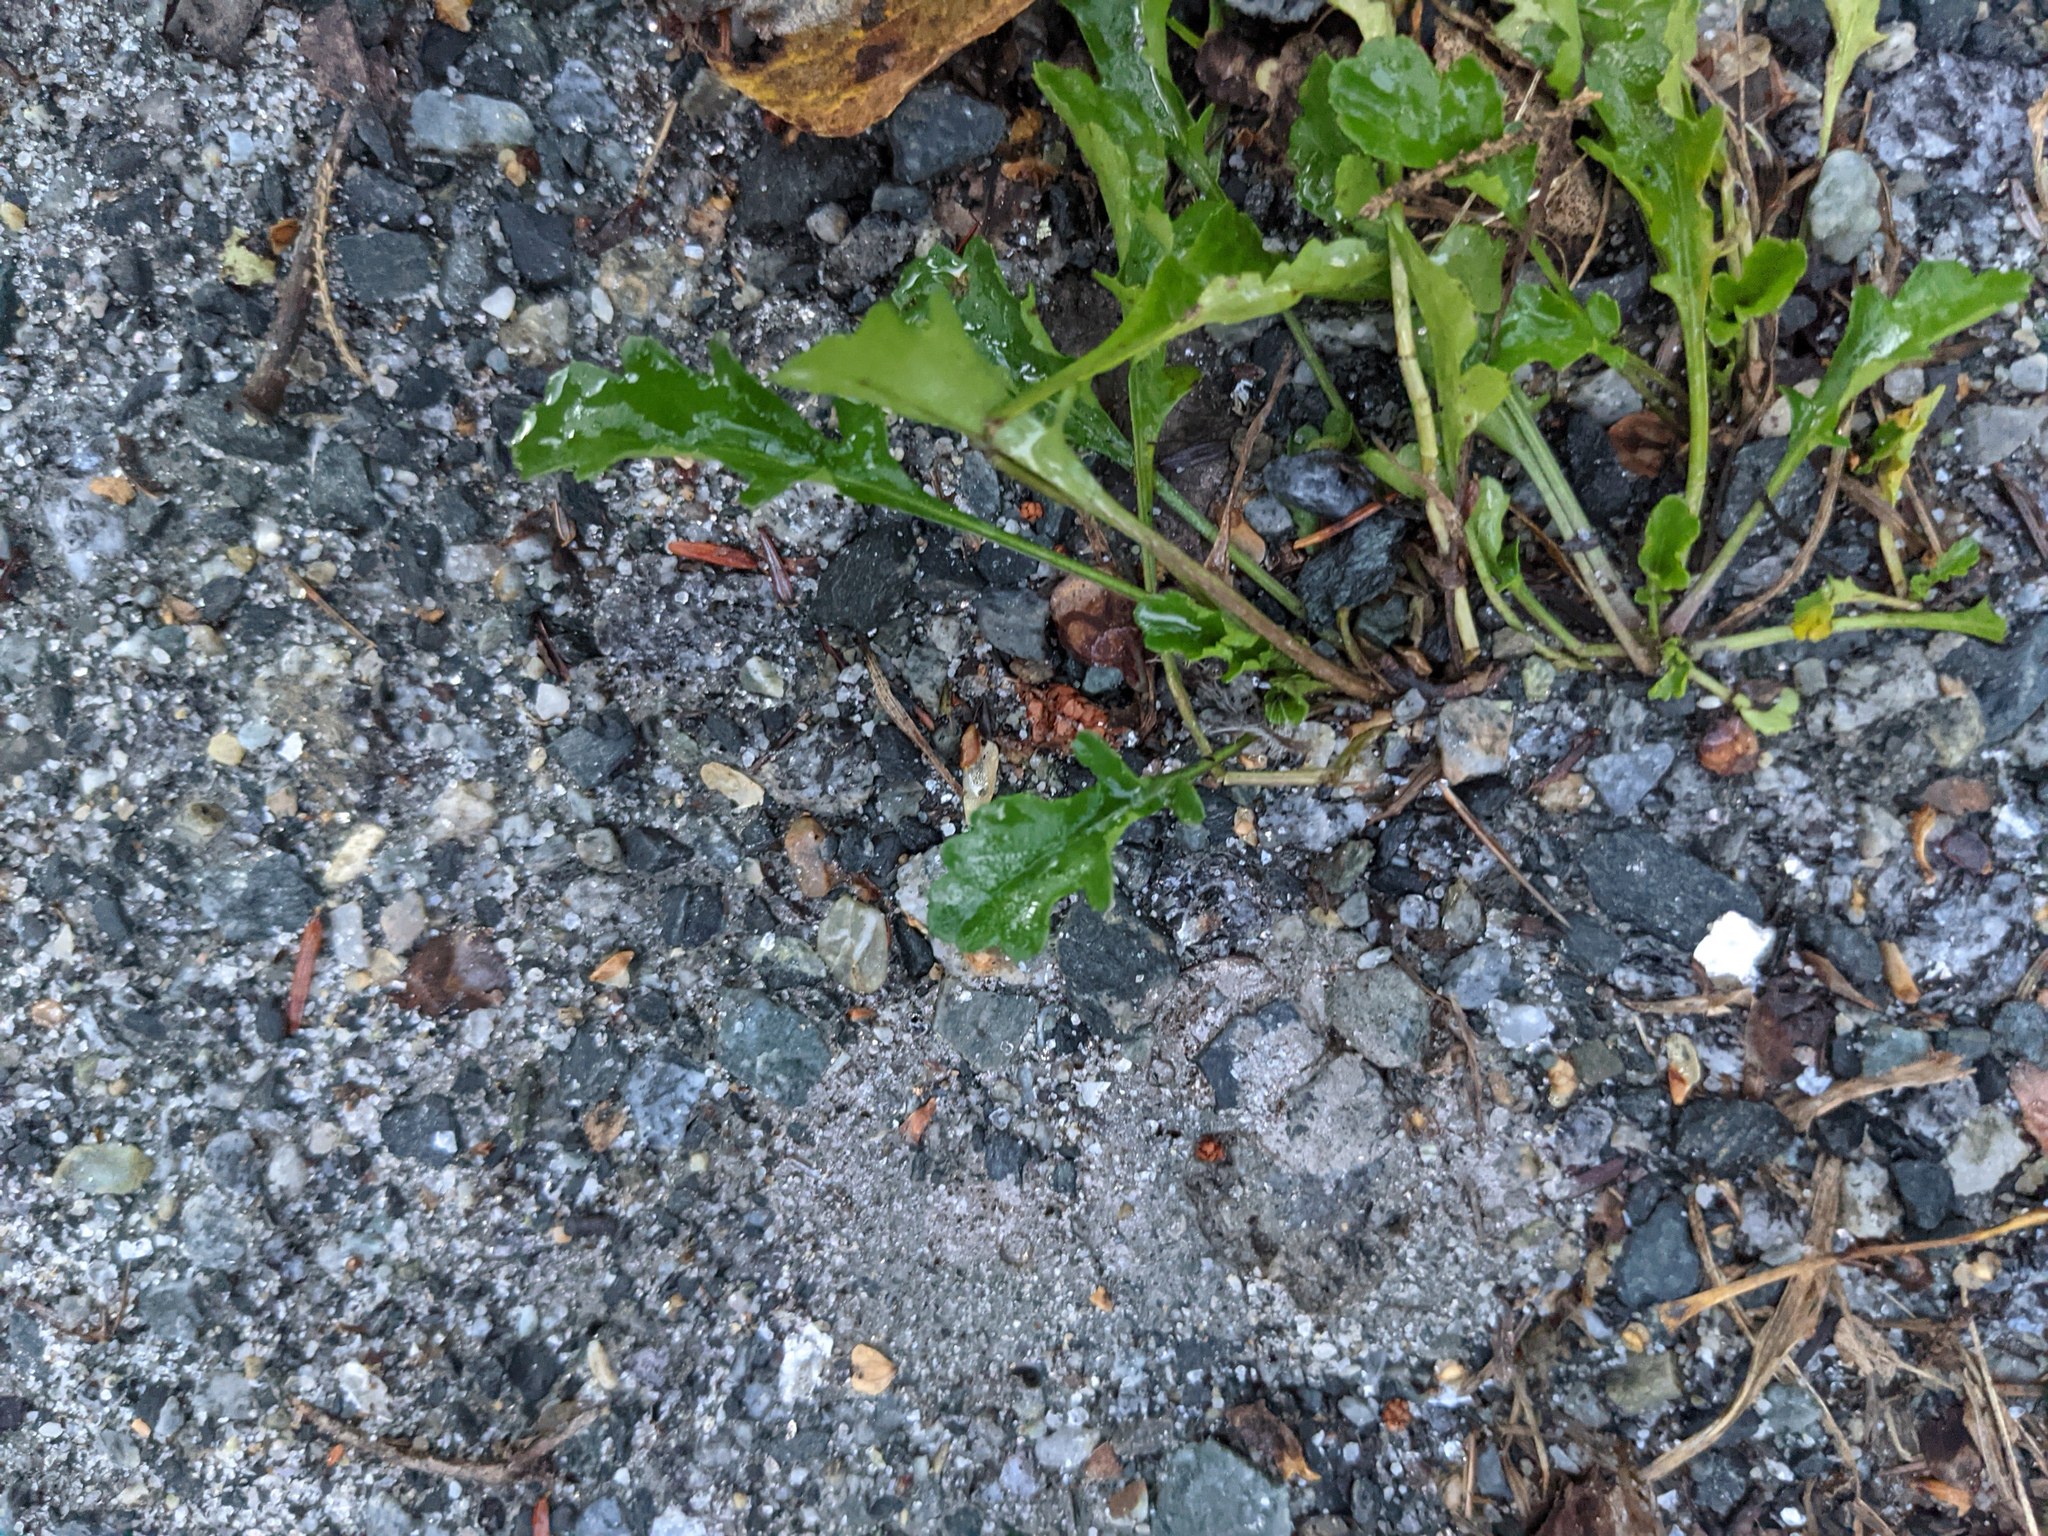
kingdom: Plantae
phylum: Tracheophyta
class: Magnoliopsida
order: Asterales
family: Asteraceae
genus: Leucanthemum
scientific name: Leucanthemum vulgare
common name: Oxeye daisy
